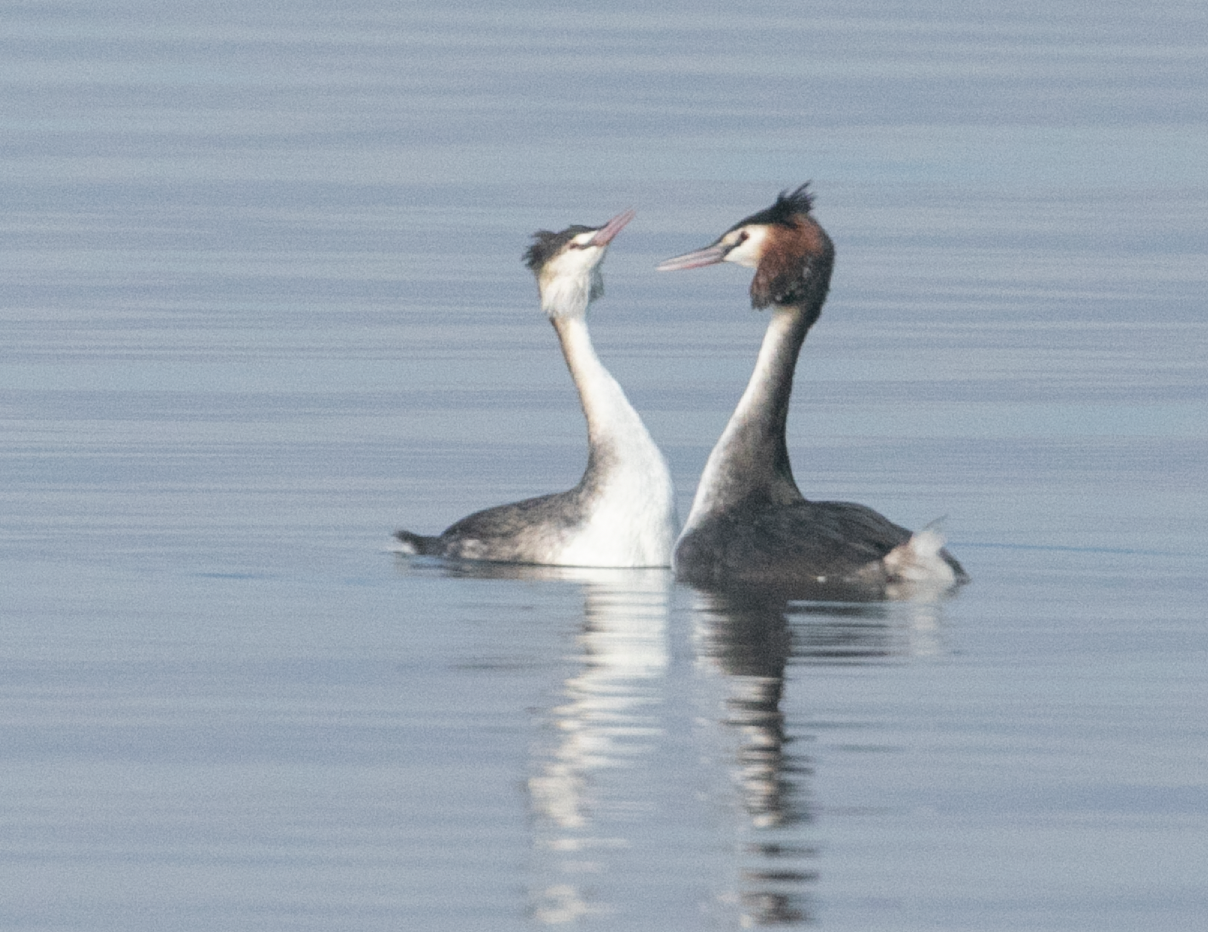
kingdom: Animalia
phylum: Chordata
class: Aves
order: Podicipediformes
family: Podicipedidae
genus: Podiceps
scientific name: Podiceps cristatus
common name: Great crested grebe
